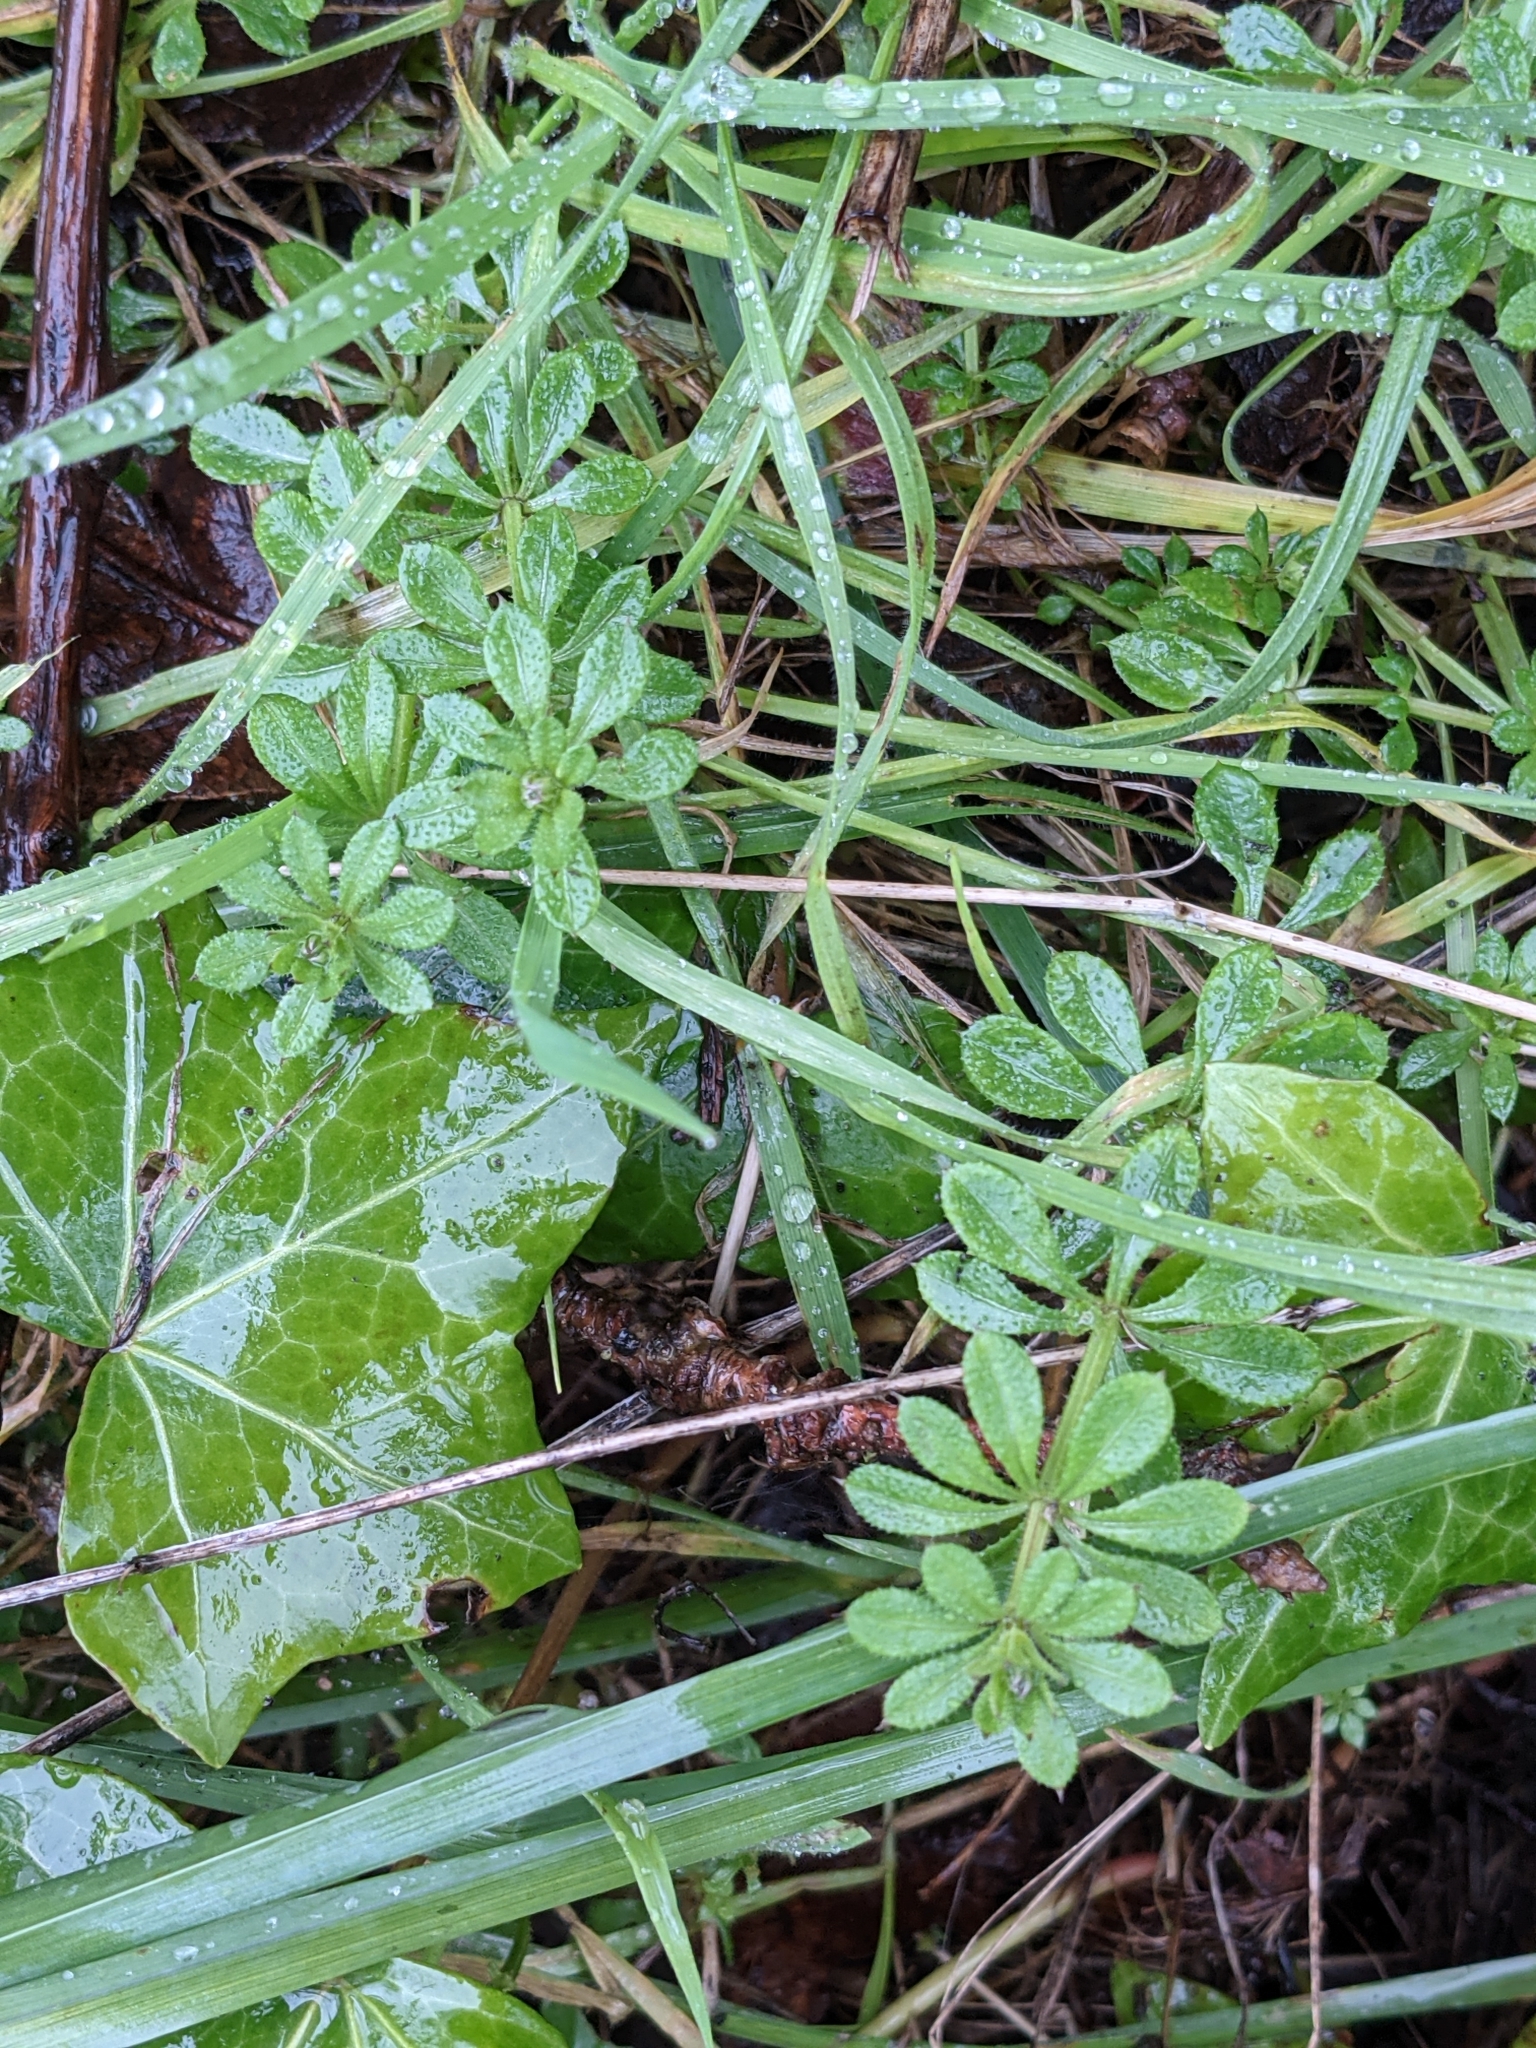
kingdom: Plantae
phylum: Tracheophyta
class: Magnoliopsida
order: Gentianales
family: Rubiaceae
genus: Galium
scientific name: Galium aparine
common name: Cleavers
